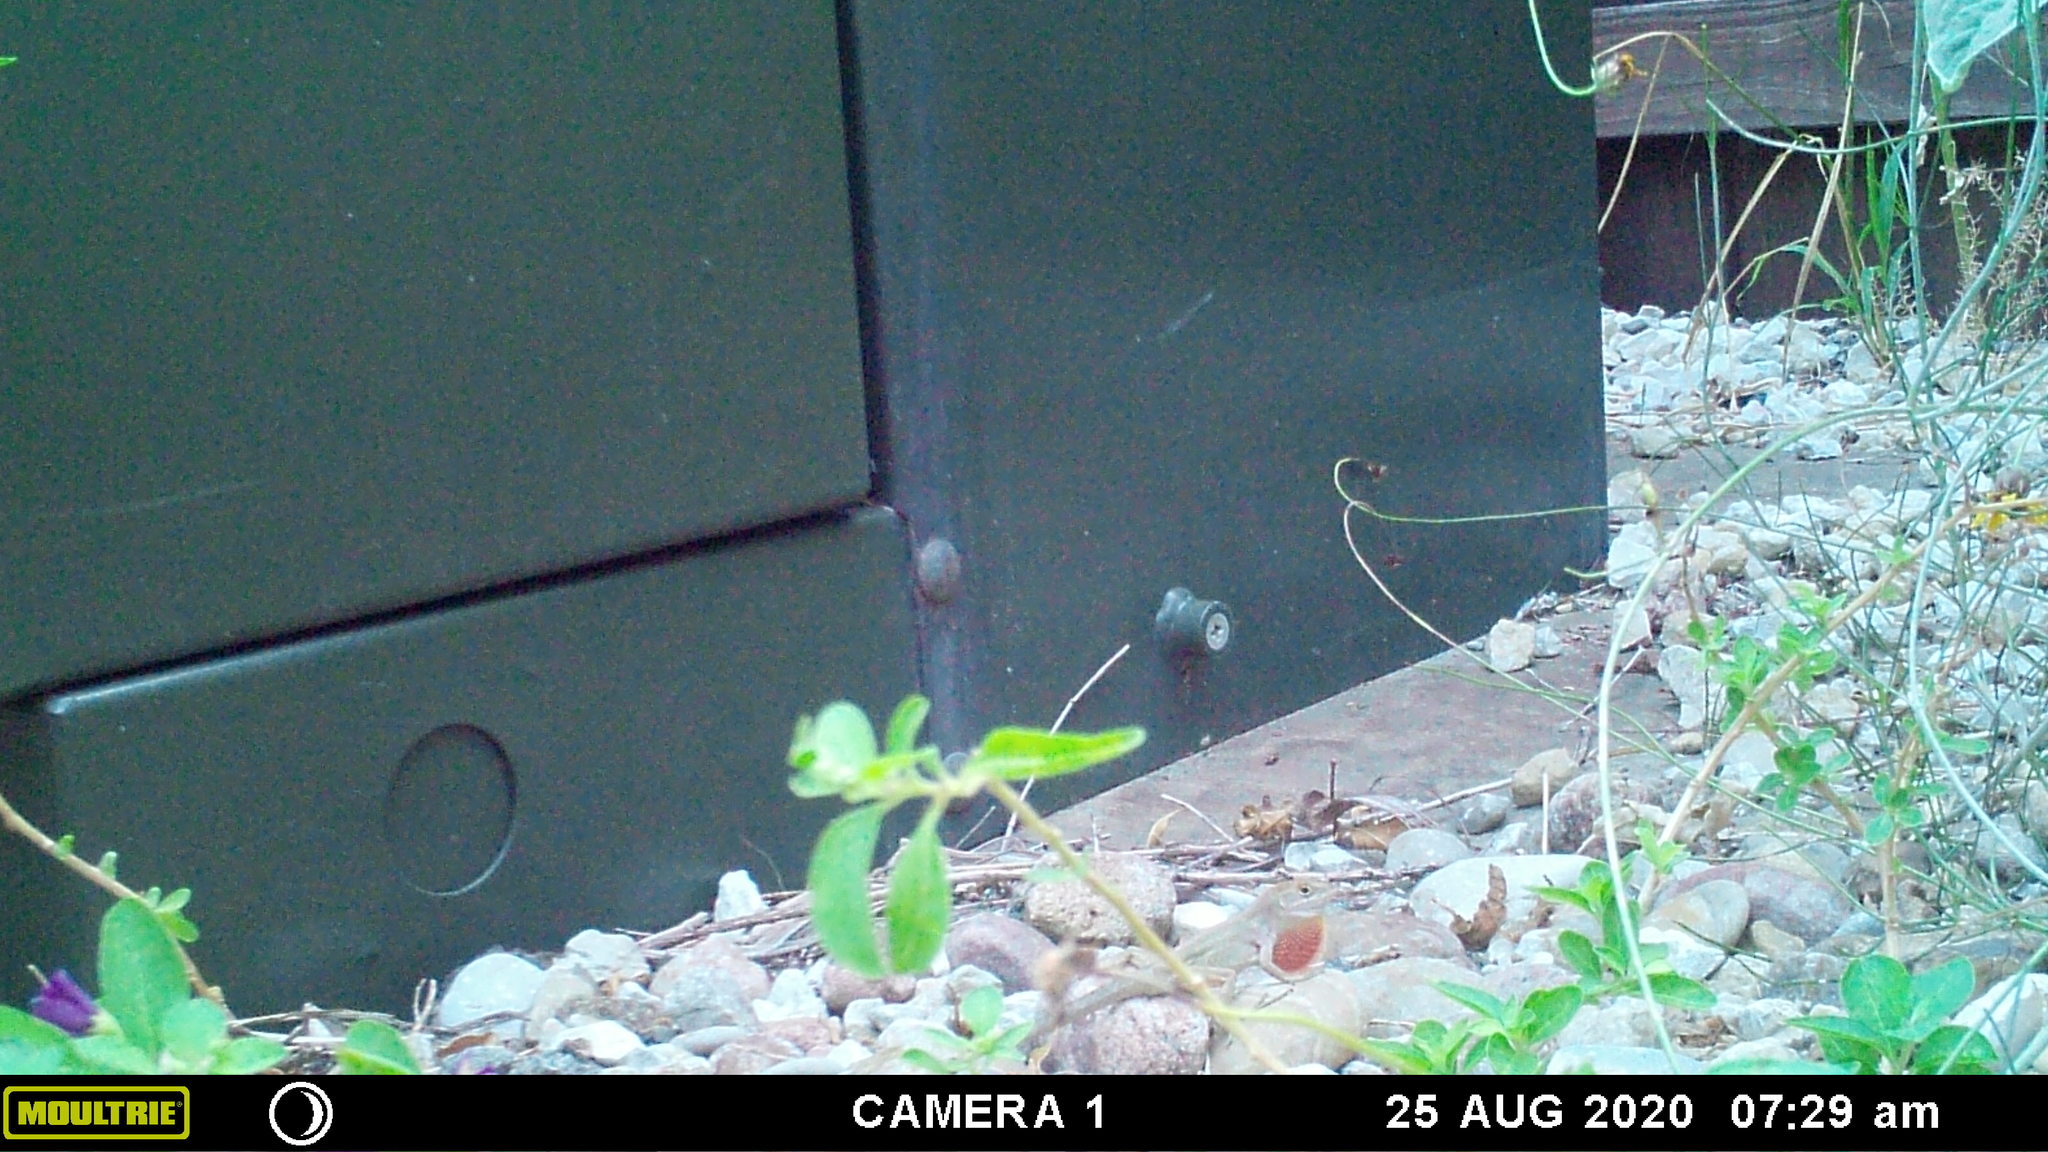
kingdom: Animalia
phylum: Chordata
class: Squamata
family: Dactyloidae
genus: Anolis
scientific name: Anolis sagrei
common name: Brown anole
